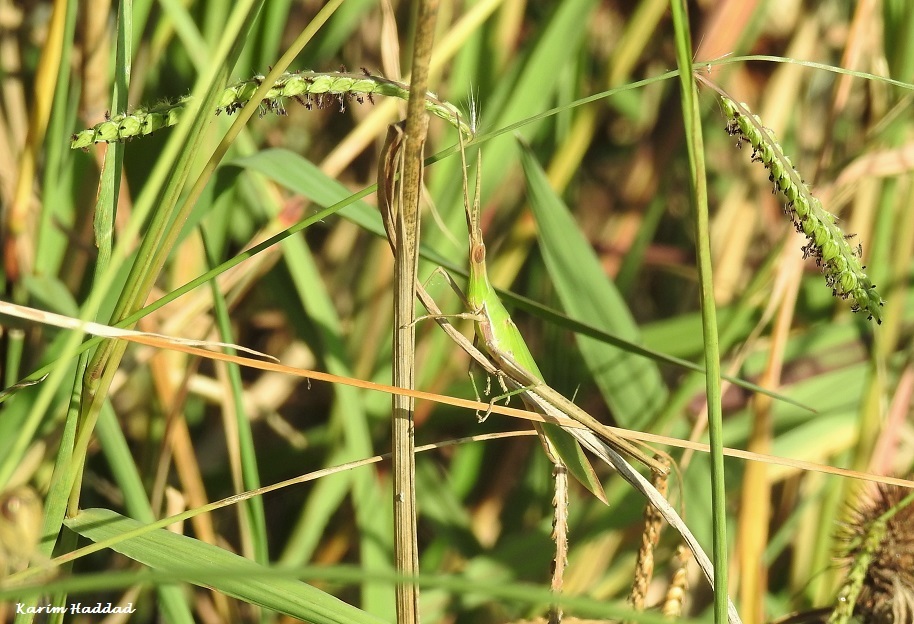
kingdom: Animalia
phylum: Arthropoda
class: Insecta
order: Orthoptera
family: Acrididae
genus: Acrida
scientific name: Acrida ungarica
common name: Common cone-headed grasshopper
